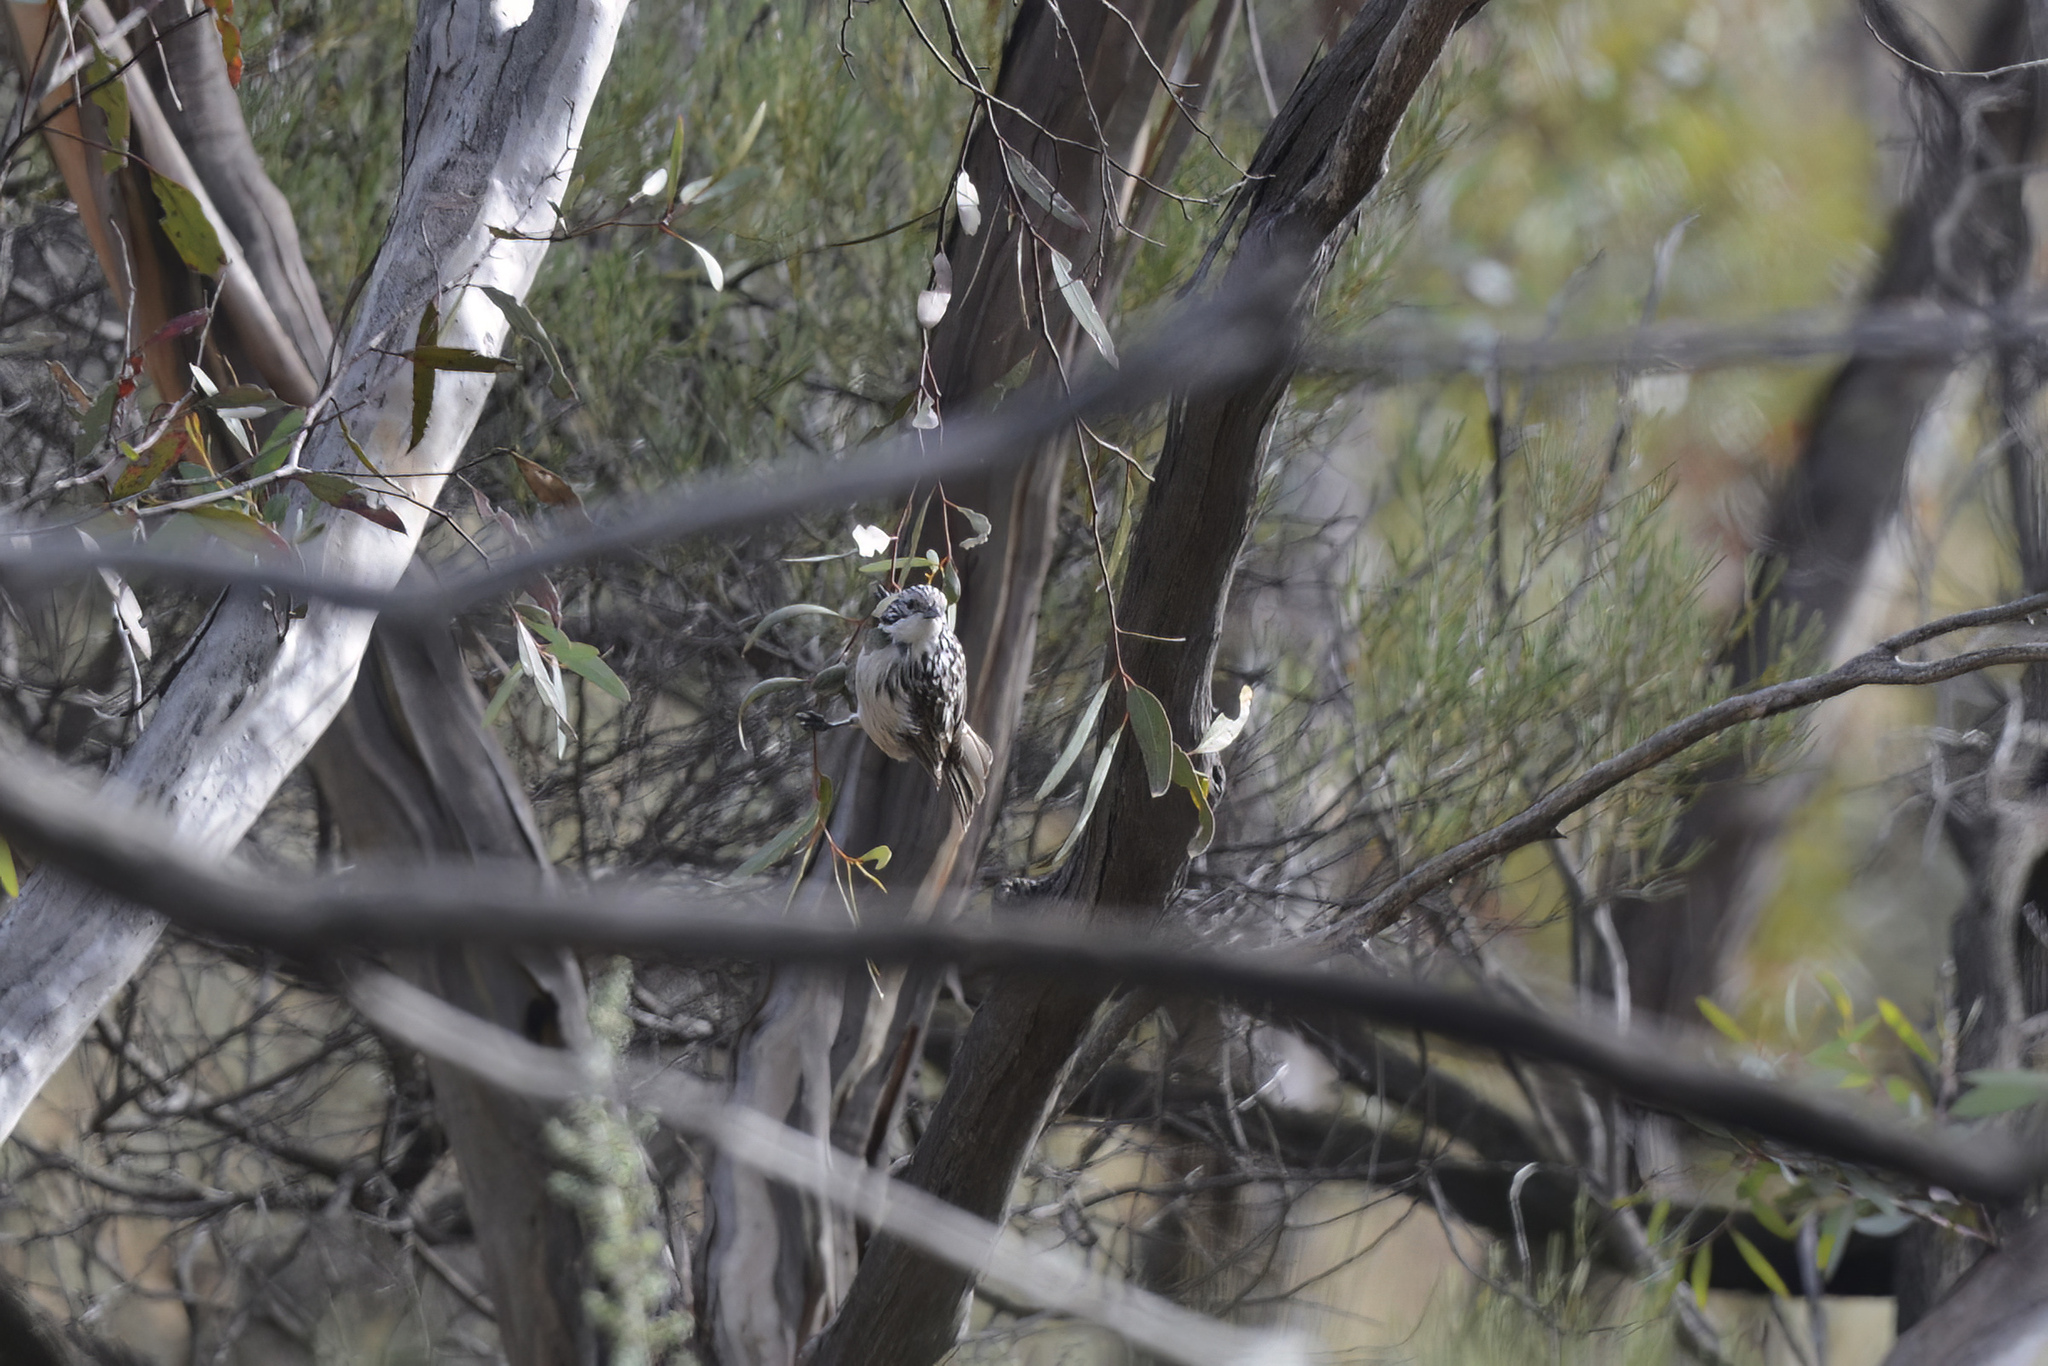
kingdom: Animalia
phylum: Chordata
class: Aves
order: Passeriformes
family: Meliphagidae
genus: Plectorhyncha
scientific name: Plectorhyncha lanceolata
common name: Striped honeyeater
